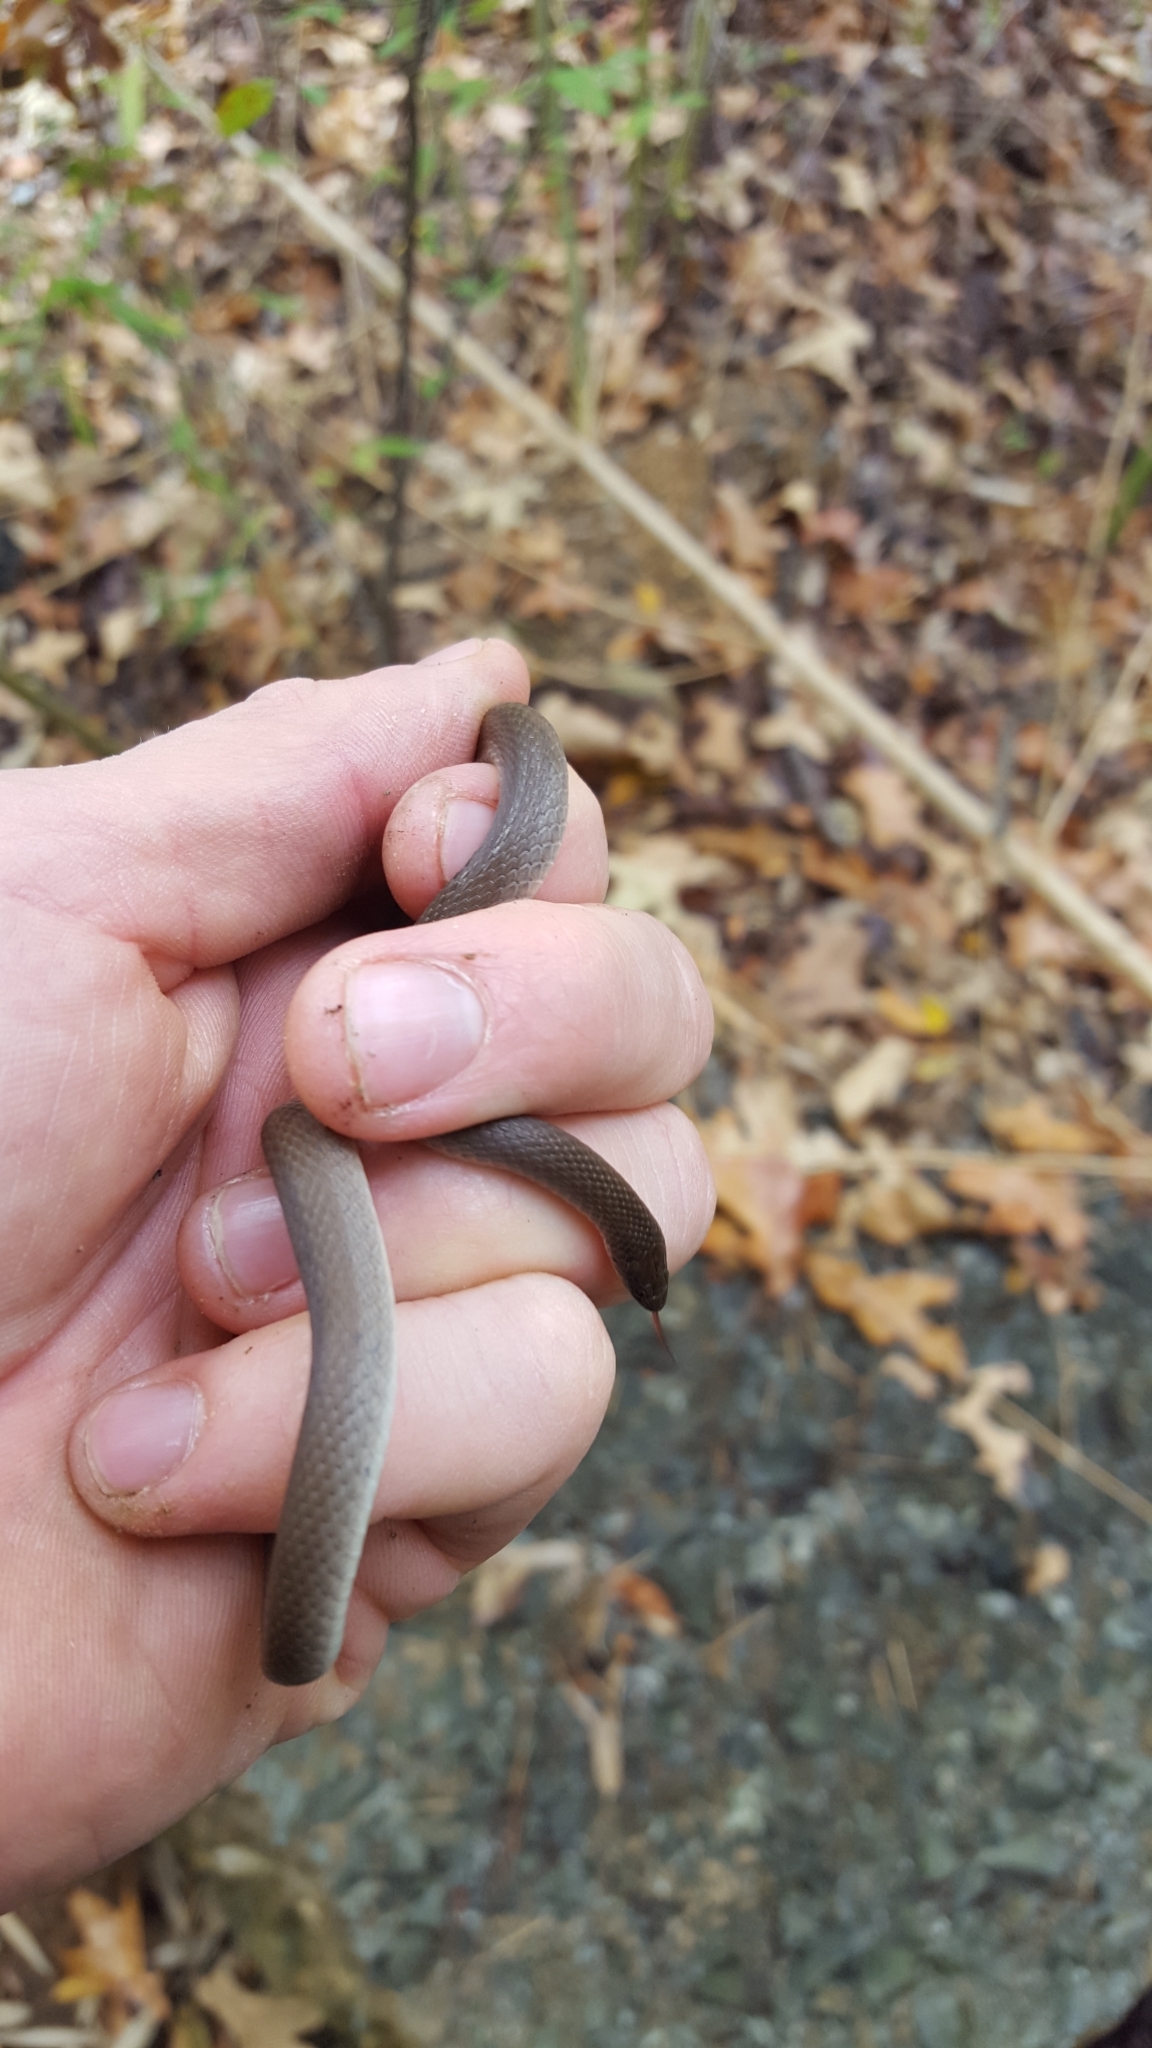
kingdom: Animalia
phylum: Chordata
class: Squamata
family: Colubridae
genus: Haldea
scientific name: Haldea striatula
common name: Rough earth snake
